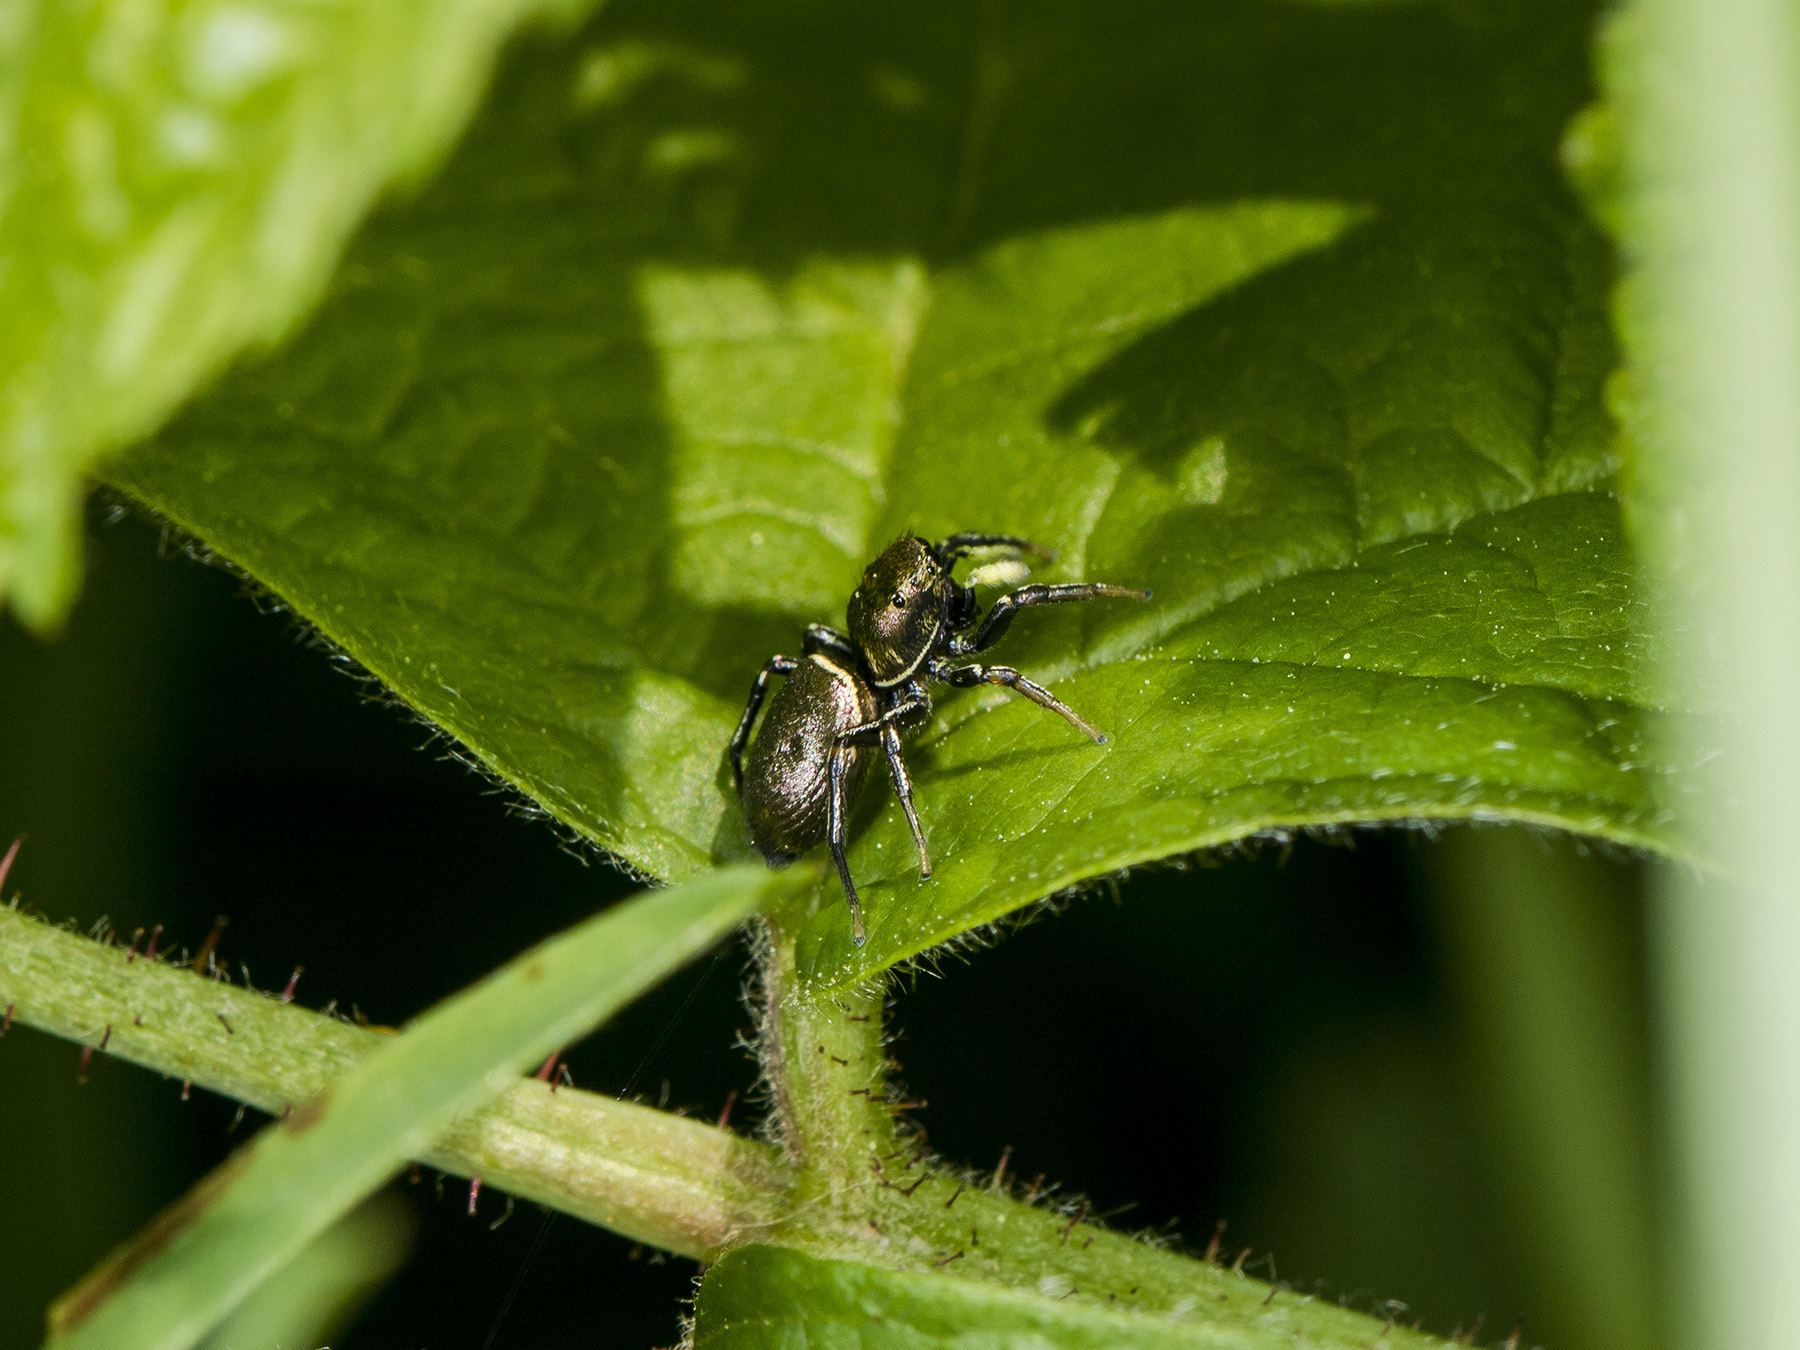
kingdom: Animalia
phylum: Arthropoda
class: Arachnida
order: Araneae
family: Salticidae
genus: Heliophanus
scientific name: Heliophanus auratus
